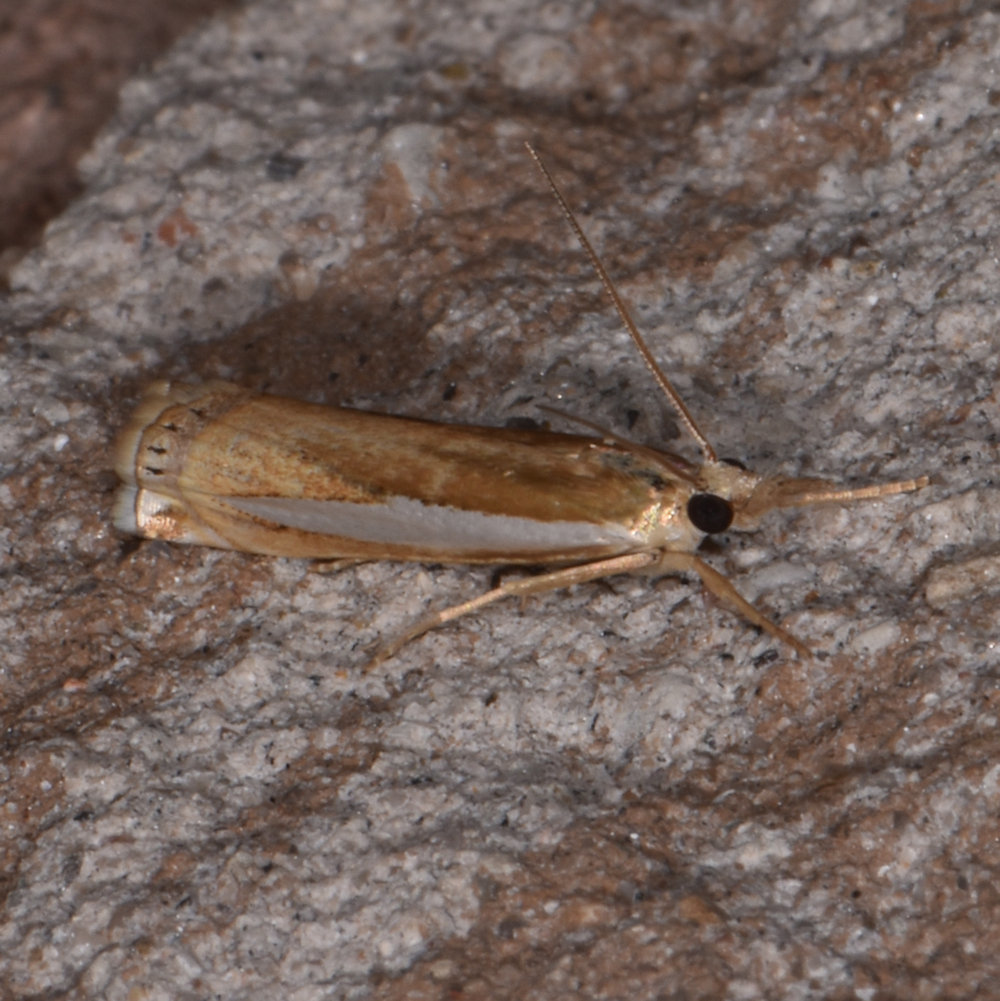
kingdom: Animalia
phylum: Arthropoda
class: Insecta
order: Lepidoptera
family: Crambidae
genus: Crambus
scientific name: Crambus praefectellus
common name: Common grass-veneer
